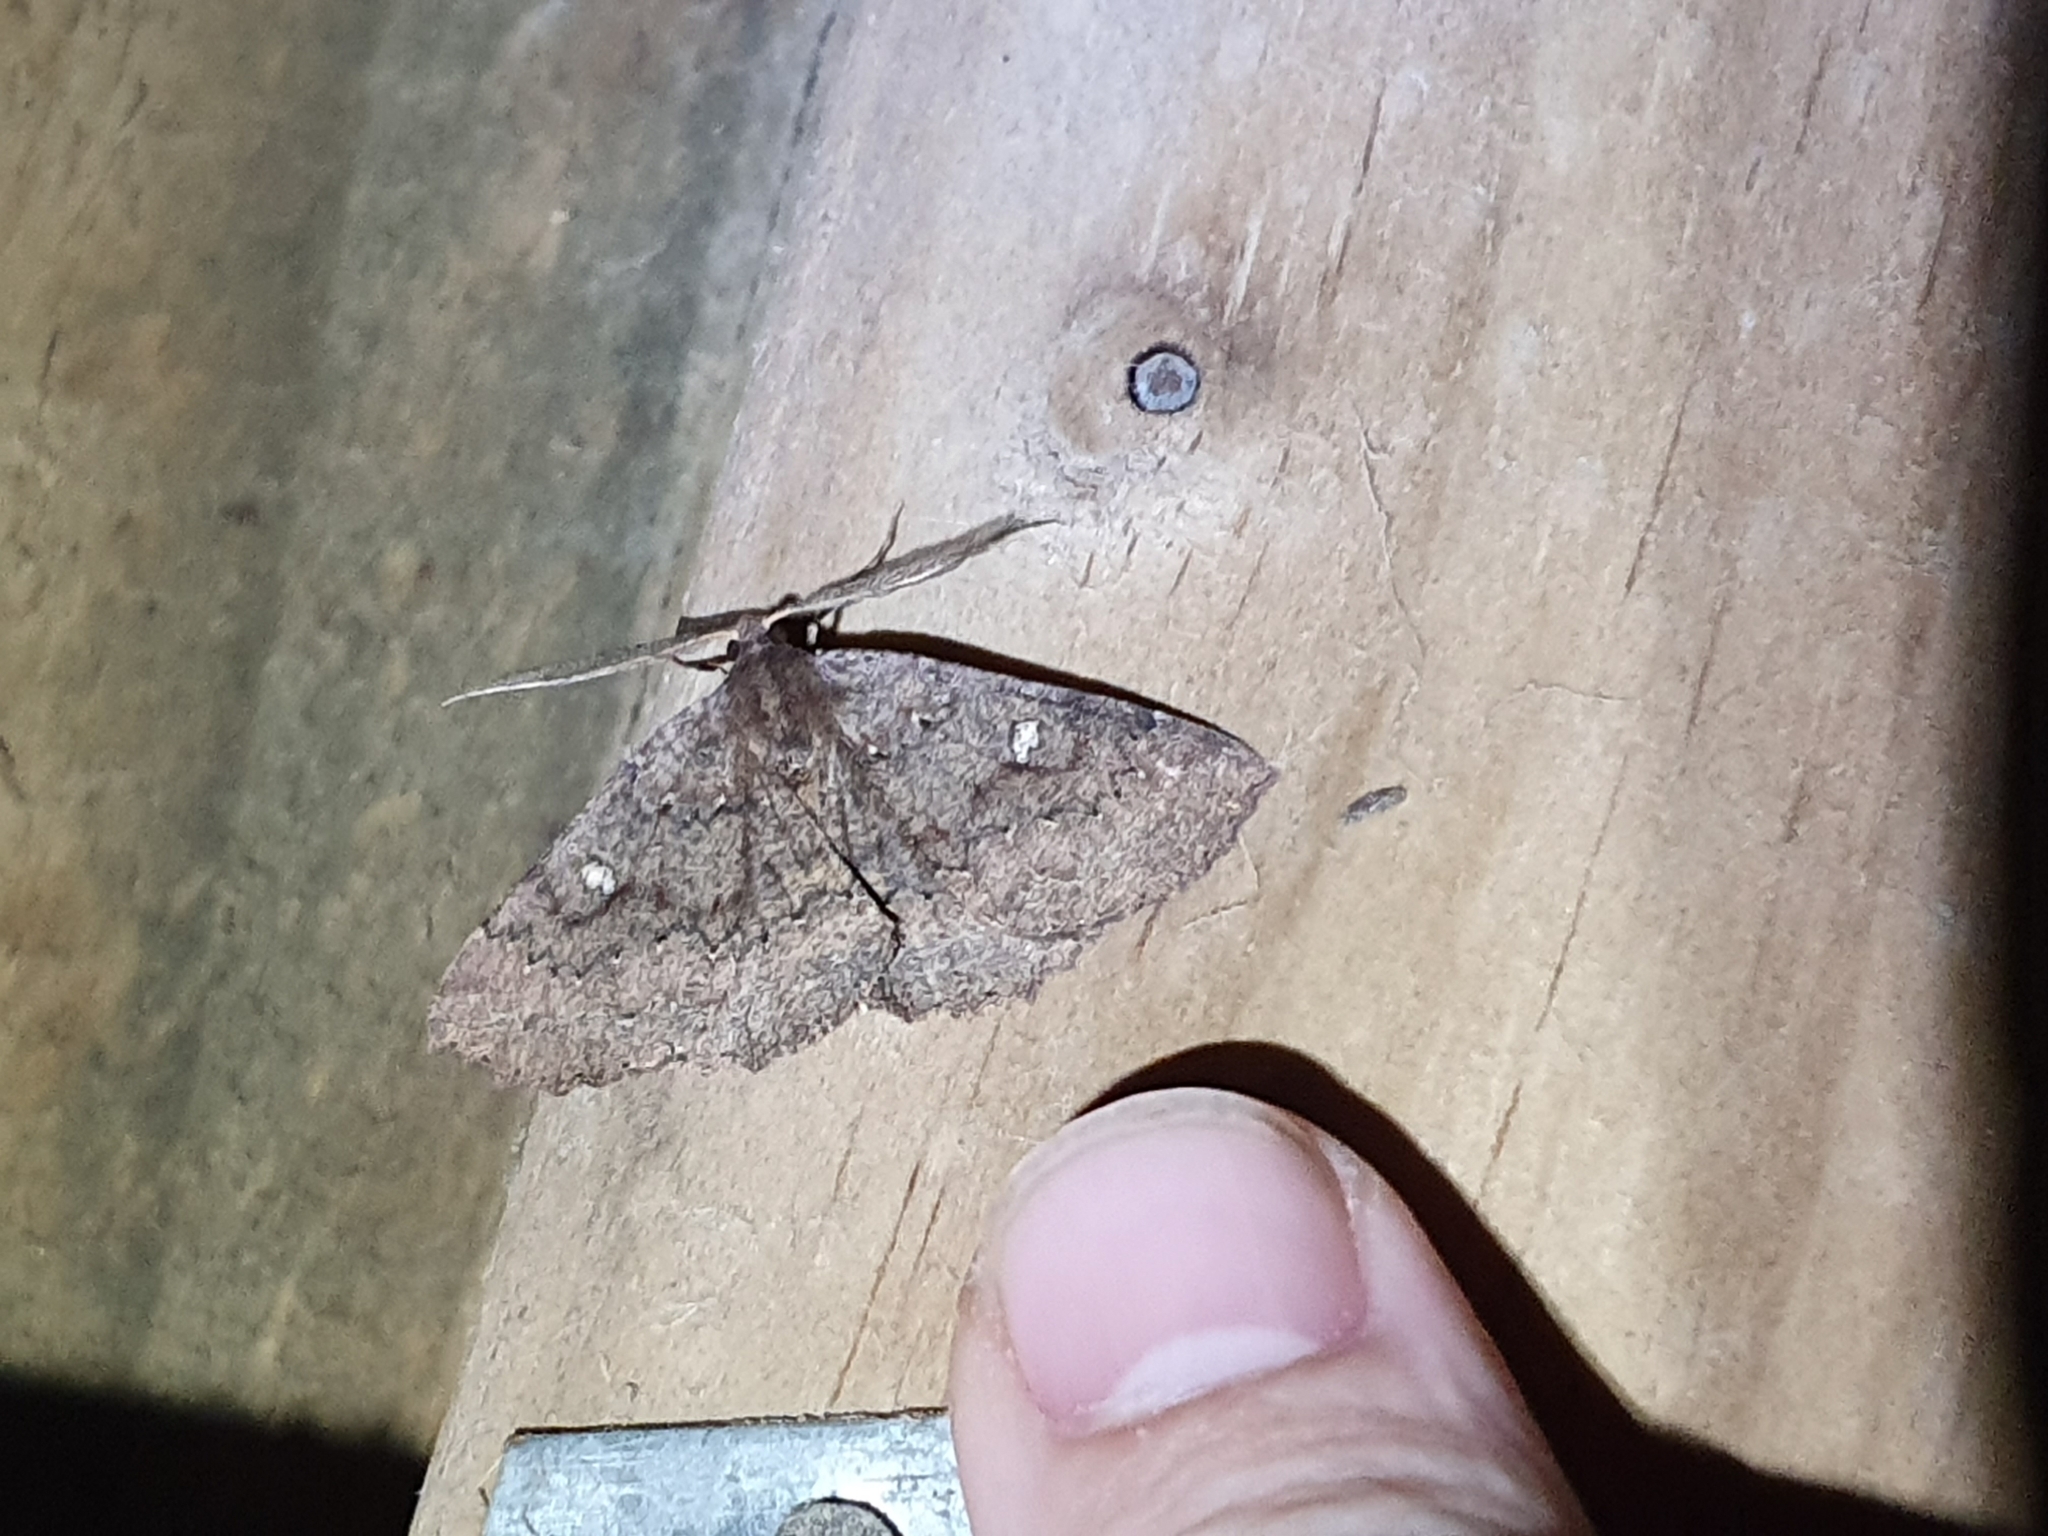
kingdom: Animalia
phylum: Arthropoda
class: Insecta
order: Lepidoptera
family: Geometridae
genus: Cleora
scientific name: Cleora scriptaria
